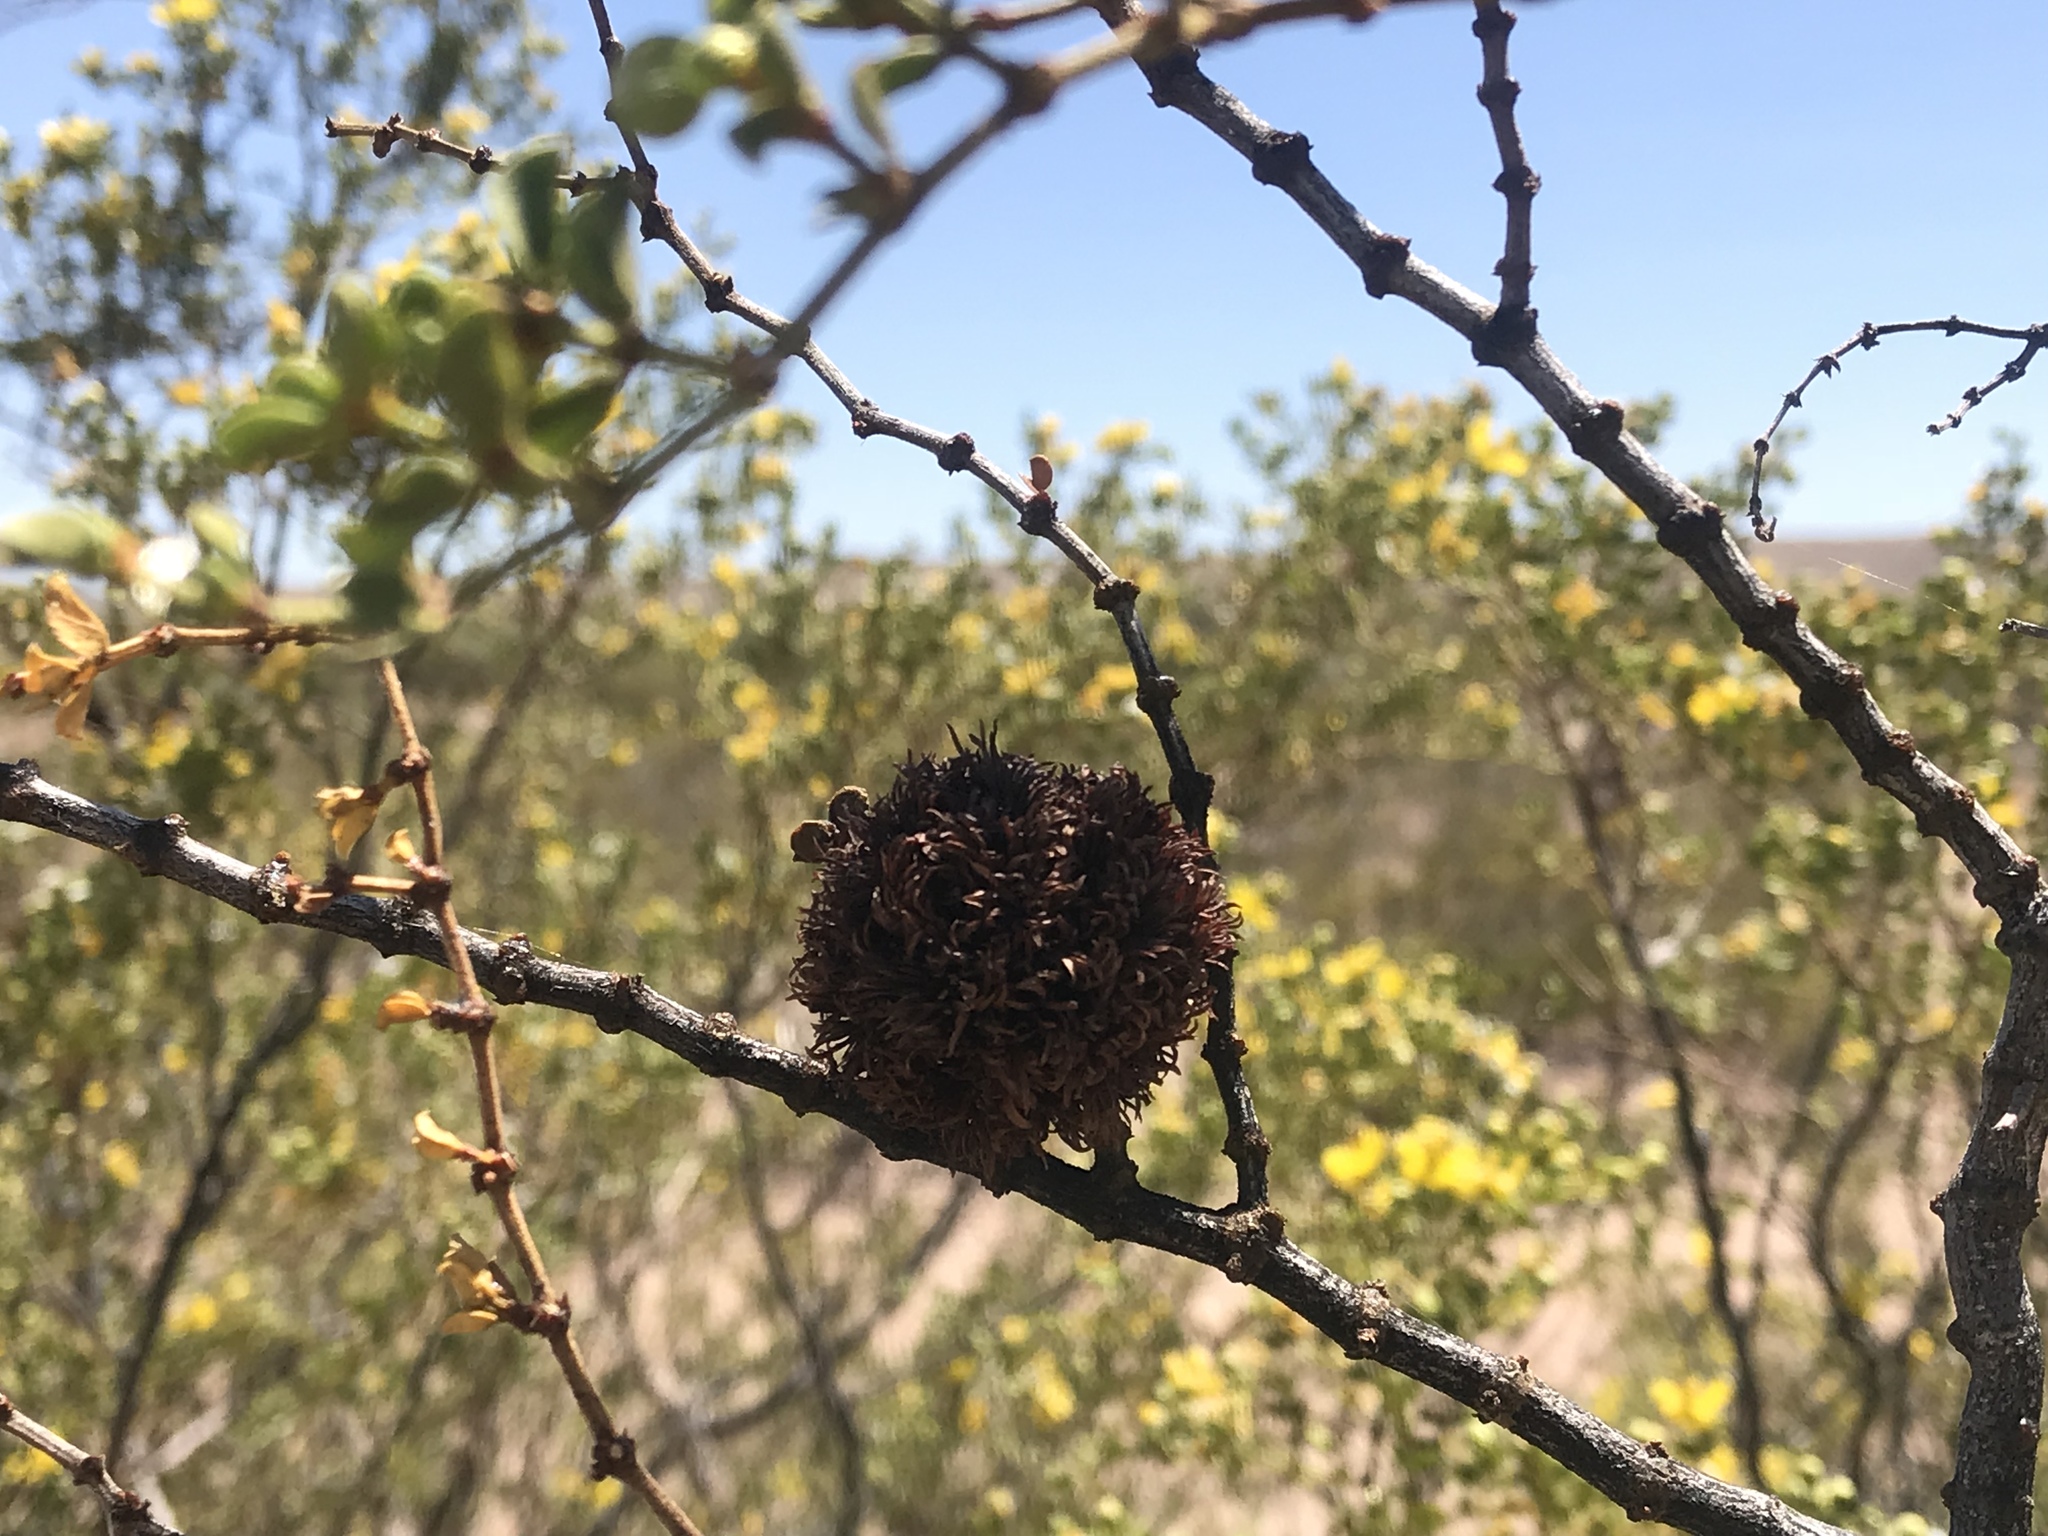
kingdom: Animalia
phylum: Arthropoda
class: Insecta
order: Diptera
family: Cecidomyiidae
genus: Asphondylia
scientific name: Asphondylia auripila
